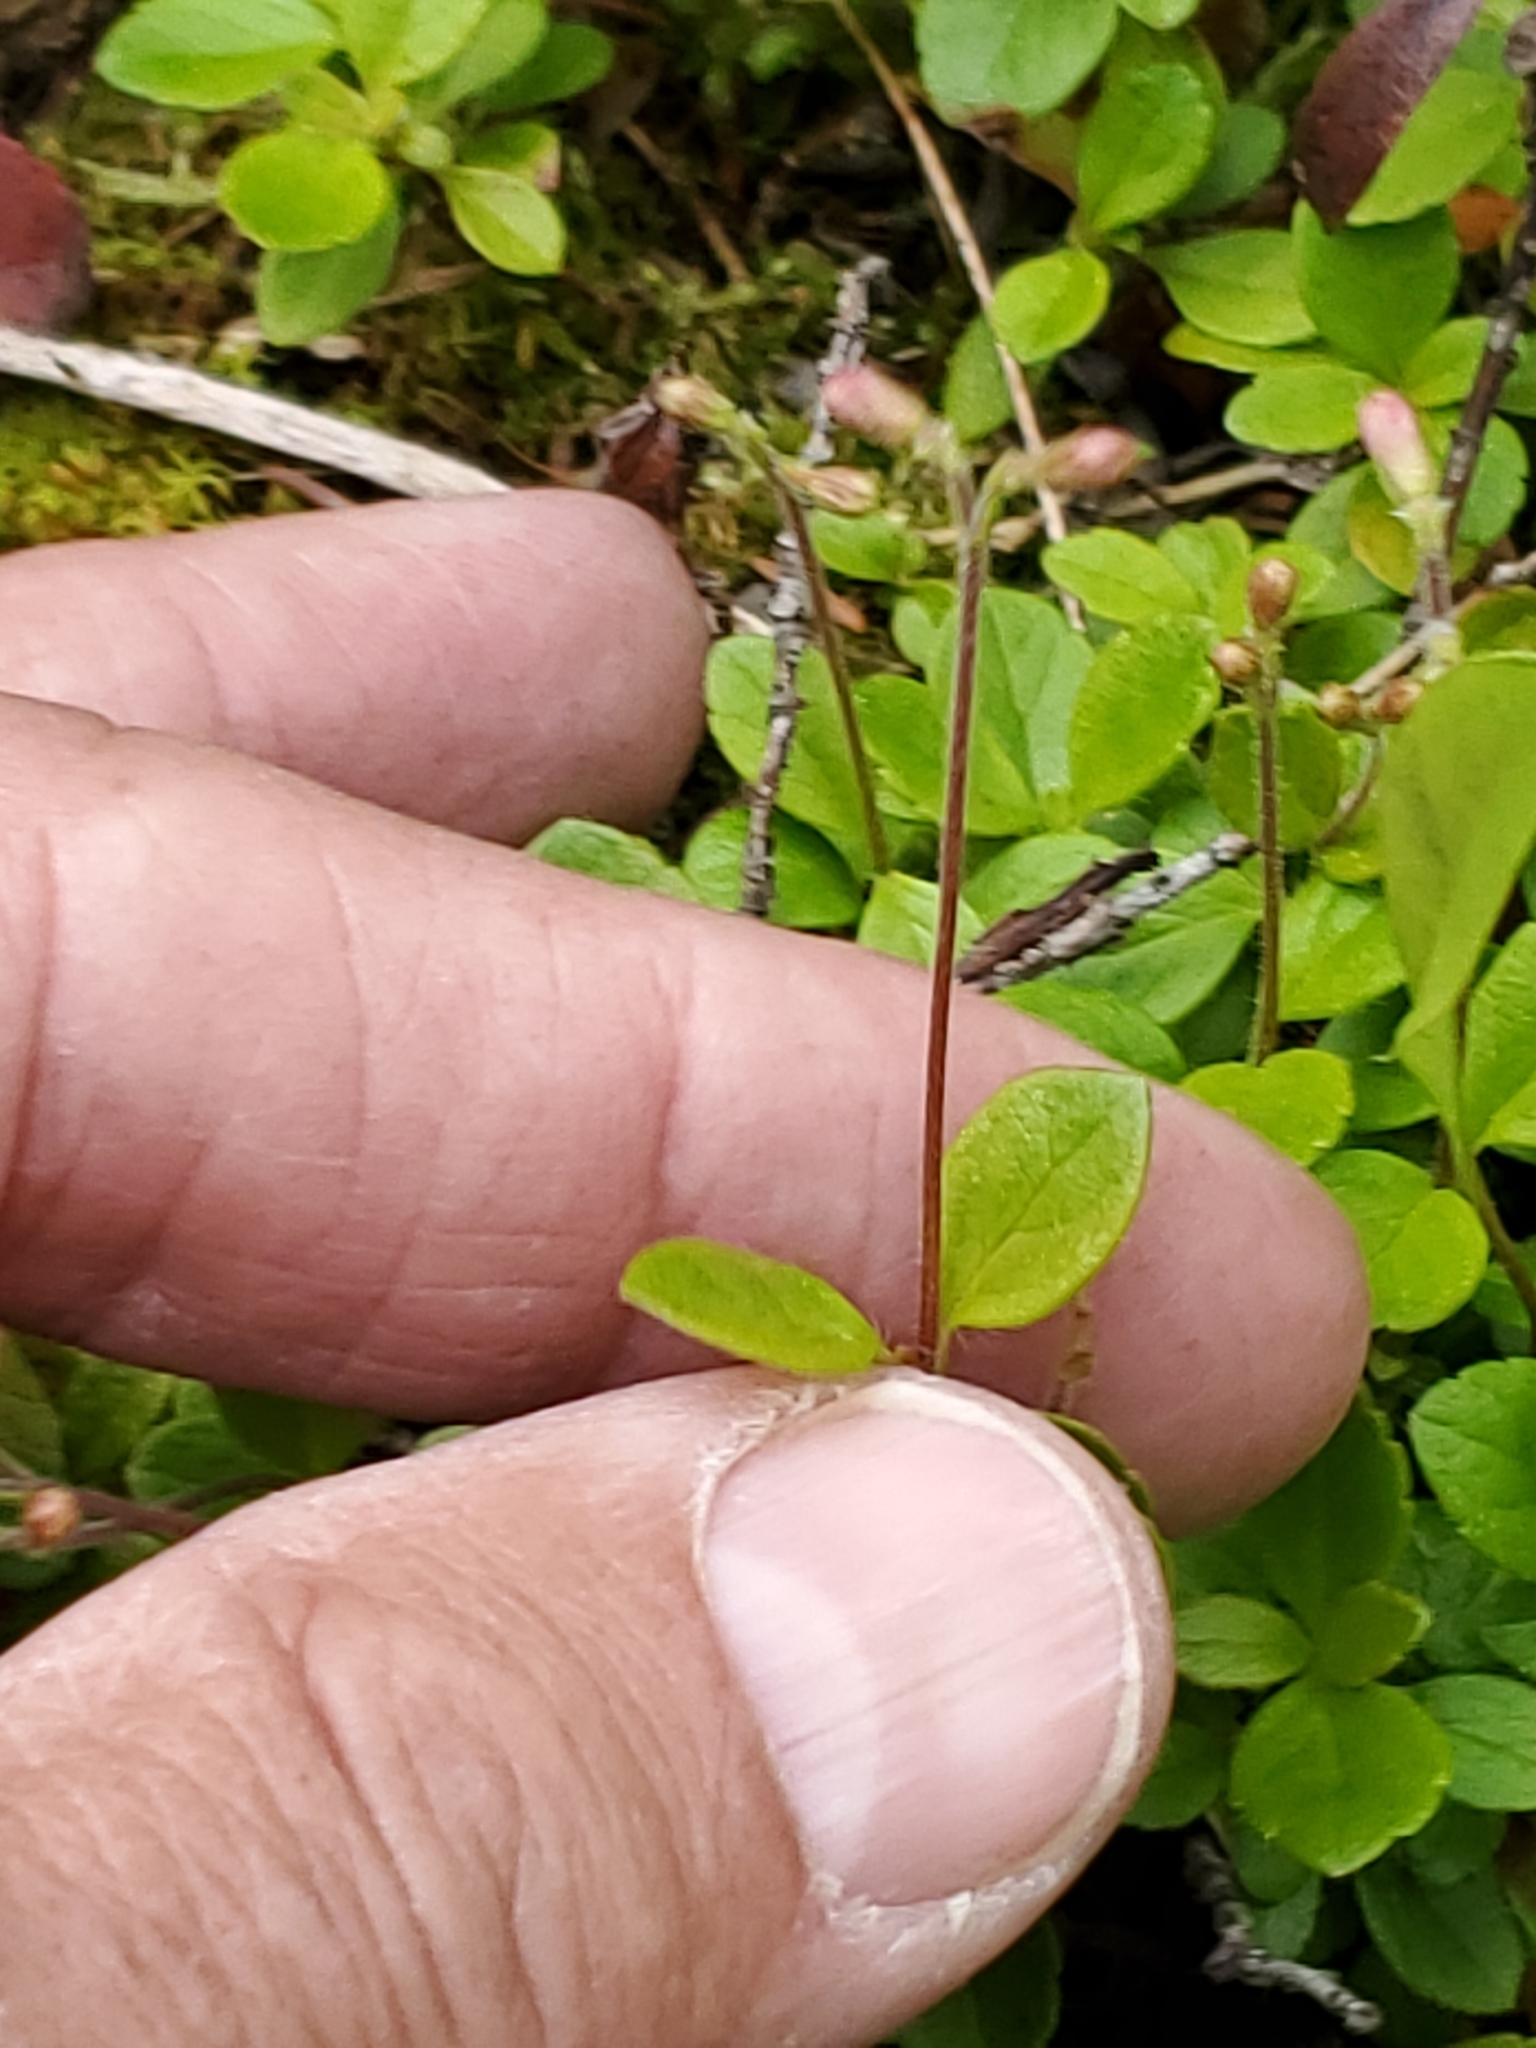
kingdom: Plantae
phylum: Tracheophyta
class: Magnoliopsida
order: Dipsacales
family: Caprifoliaceae
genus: Linnaea
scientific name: Linnaea borealis
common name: Twinflower
